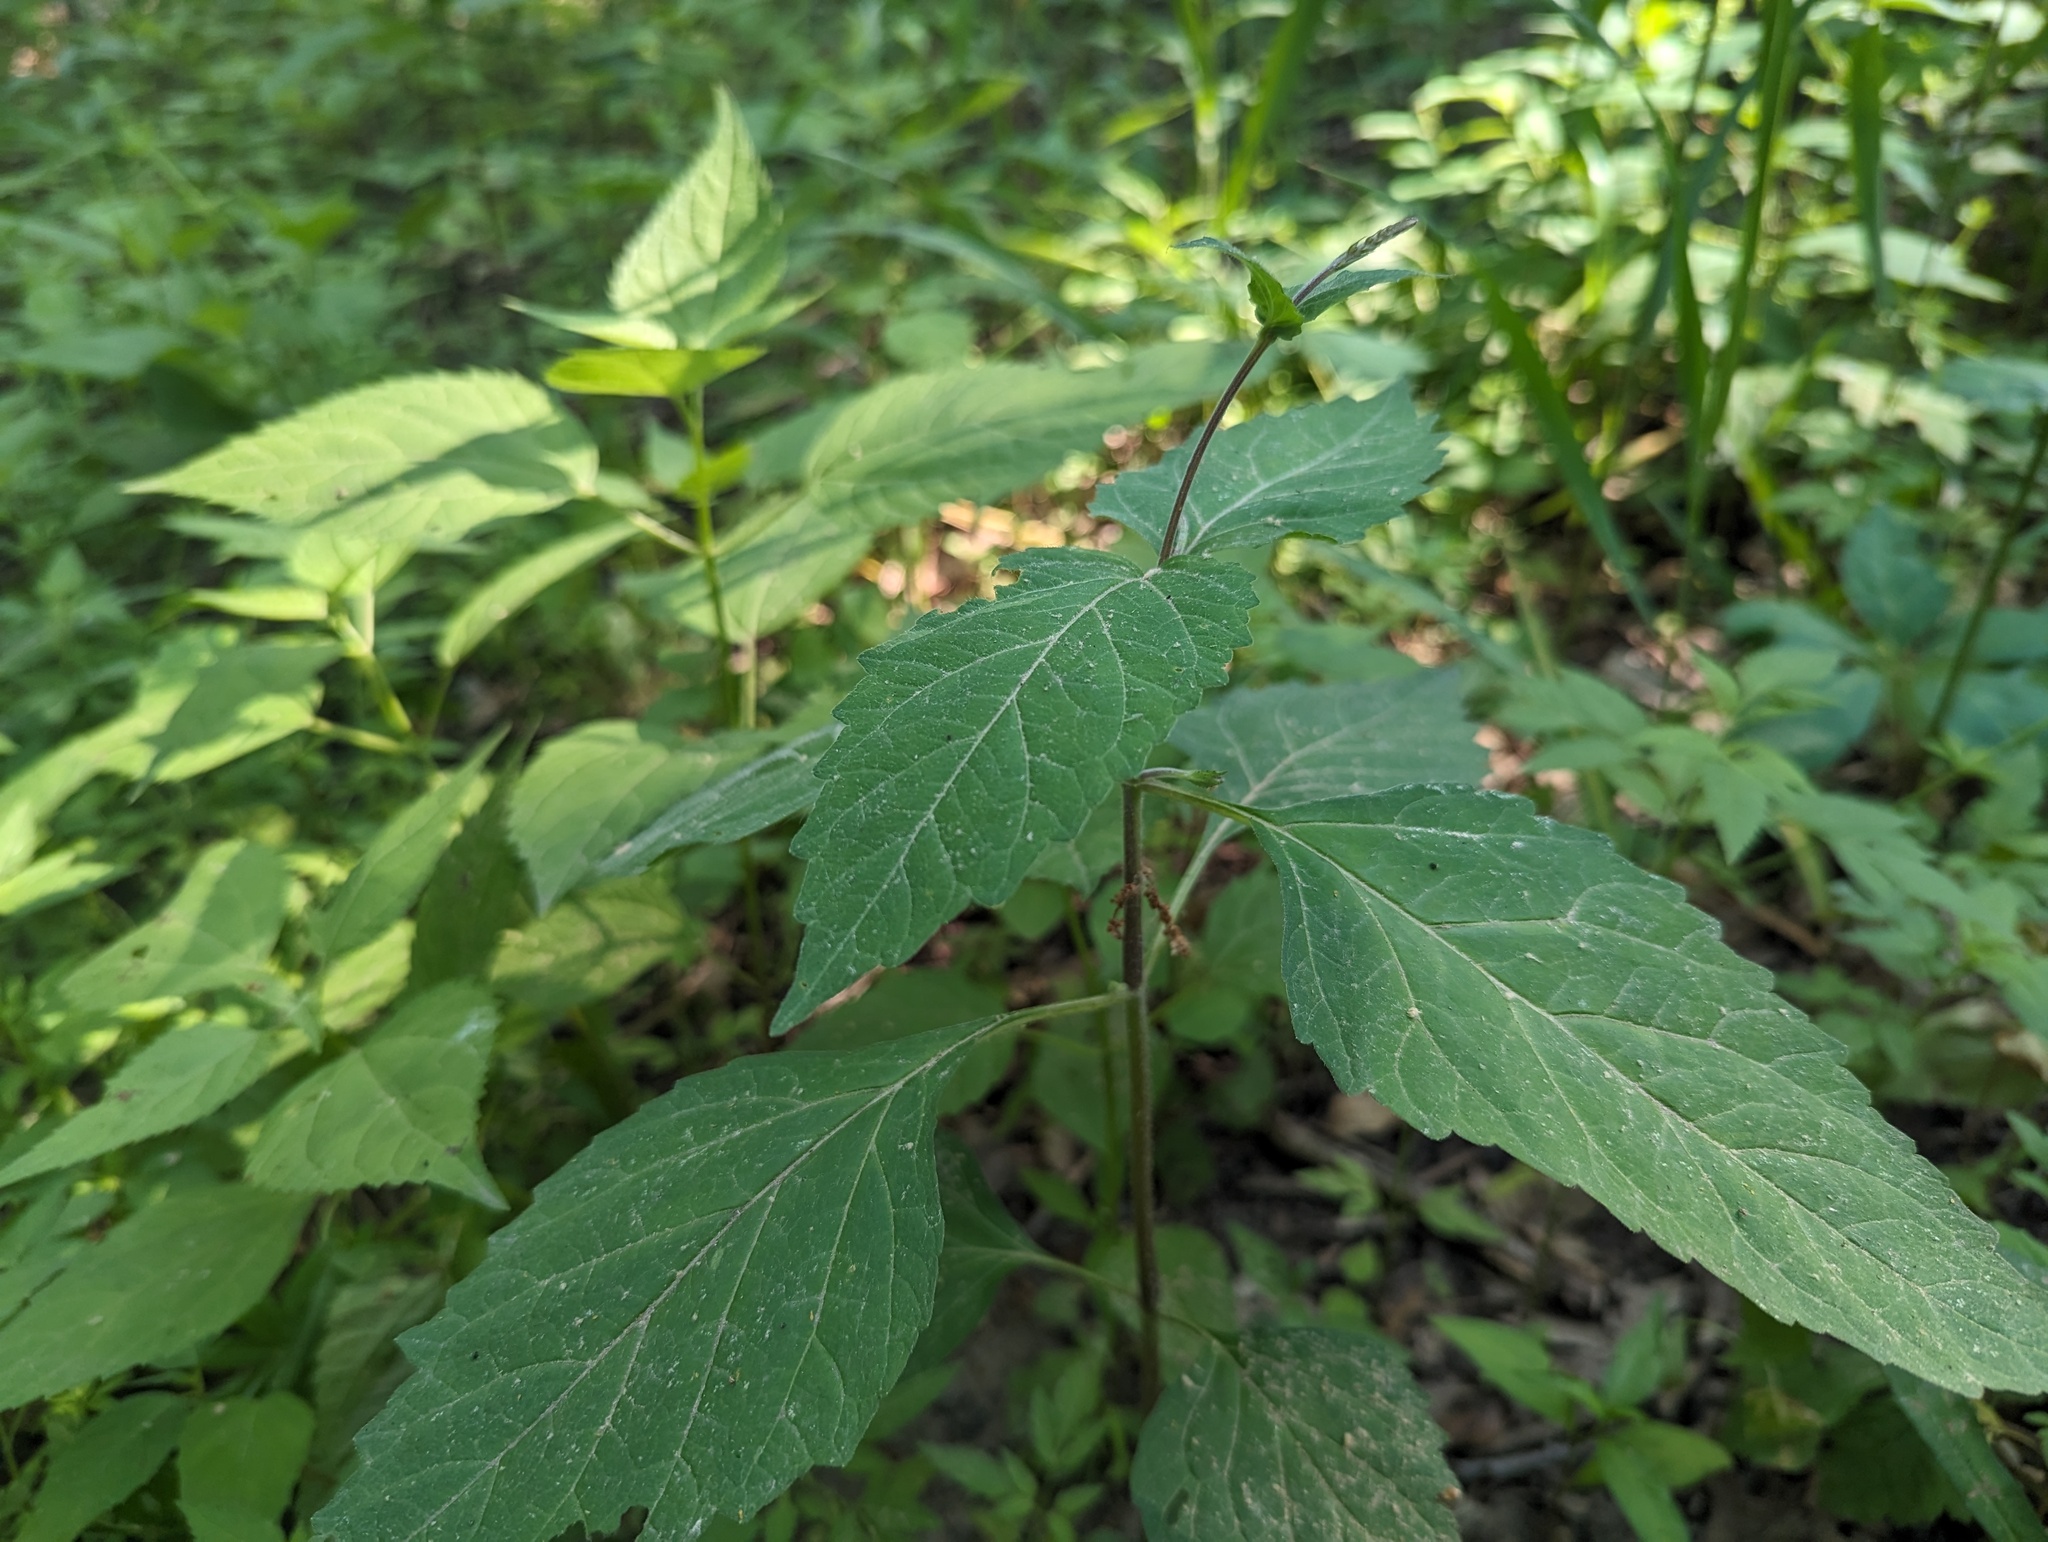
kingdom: Plantae
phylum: Tracheophyta
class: Magnoliopsida
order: Lamiales
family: Phrymaceae
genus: Phryma
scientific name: Phryma leptostachya
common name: American lopseed
